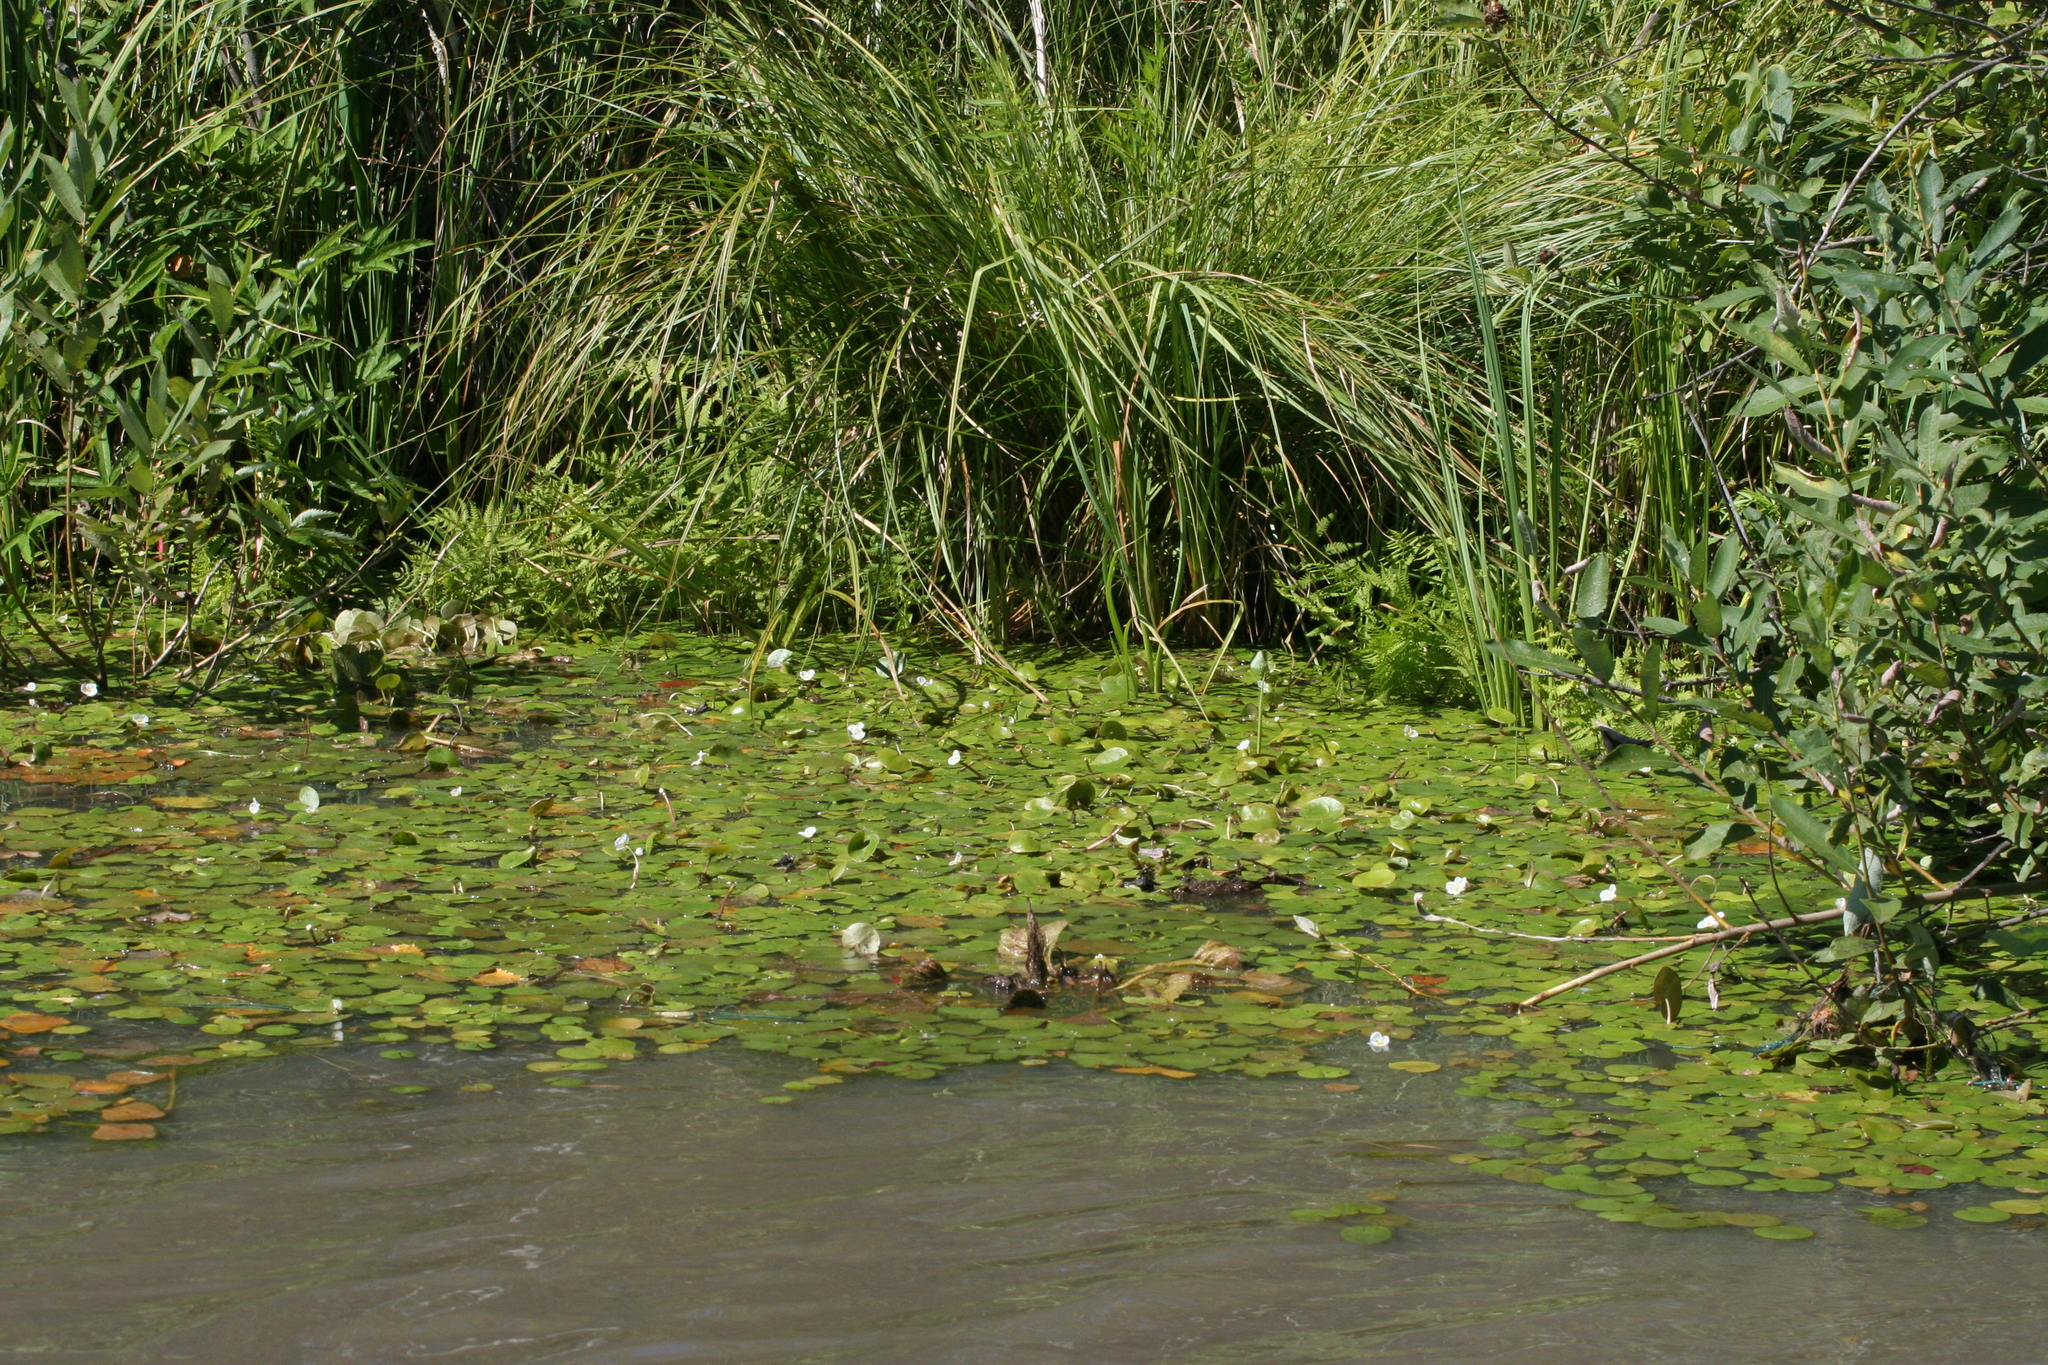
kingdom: Plantae
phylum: Tracheophyta
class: Liliopsida
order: Alismatales
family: Hydrocharitaceae
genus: Hydrocharis
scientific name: Hydrocharis morsus-ranae
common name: Frogbit
